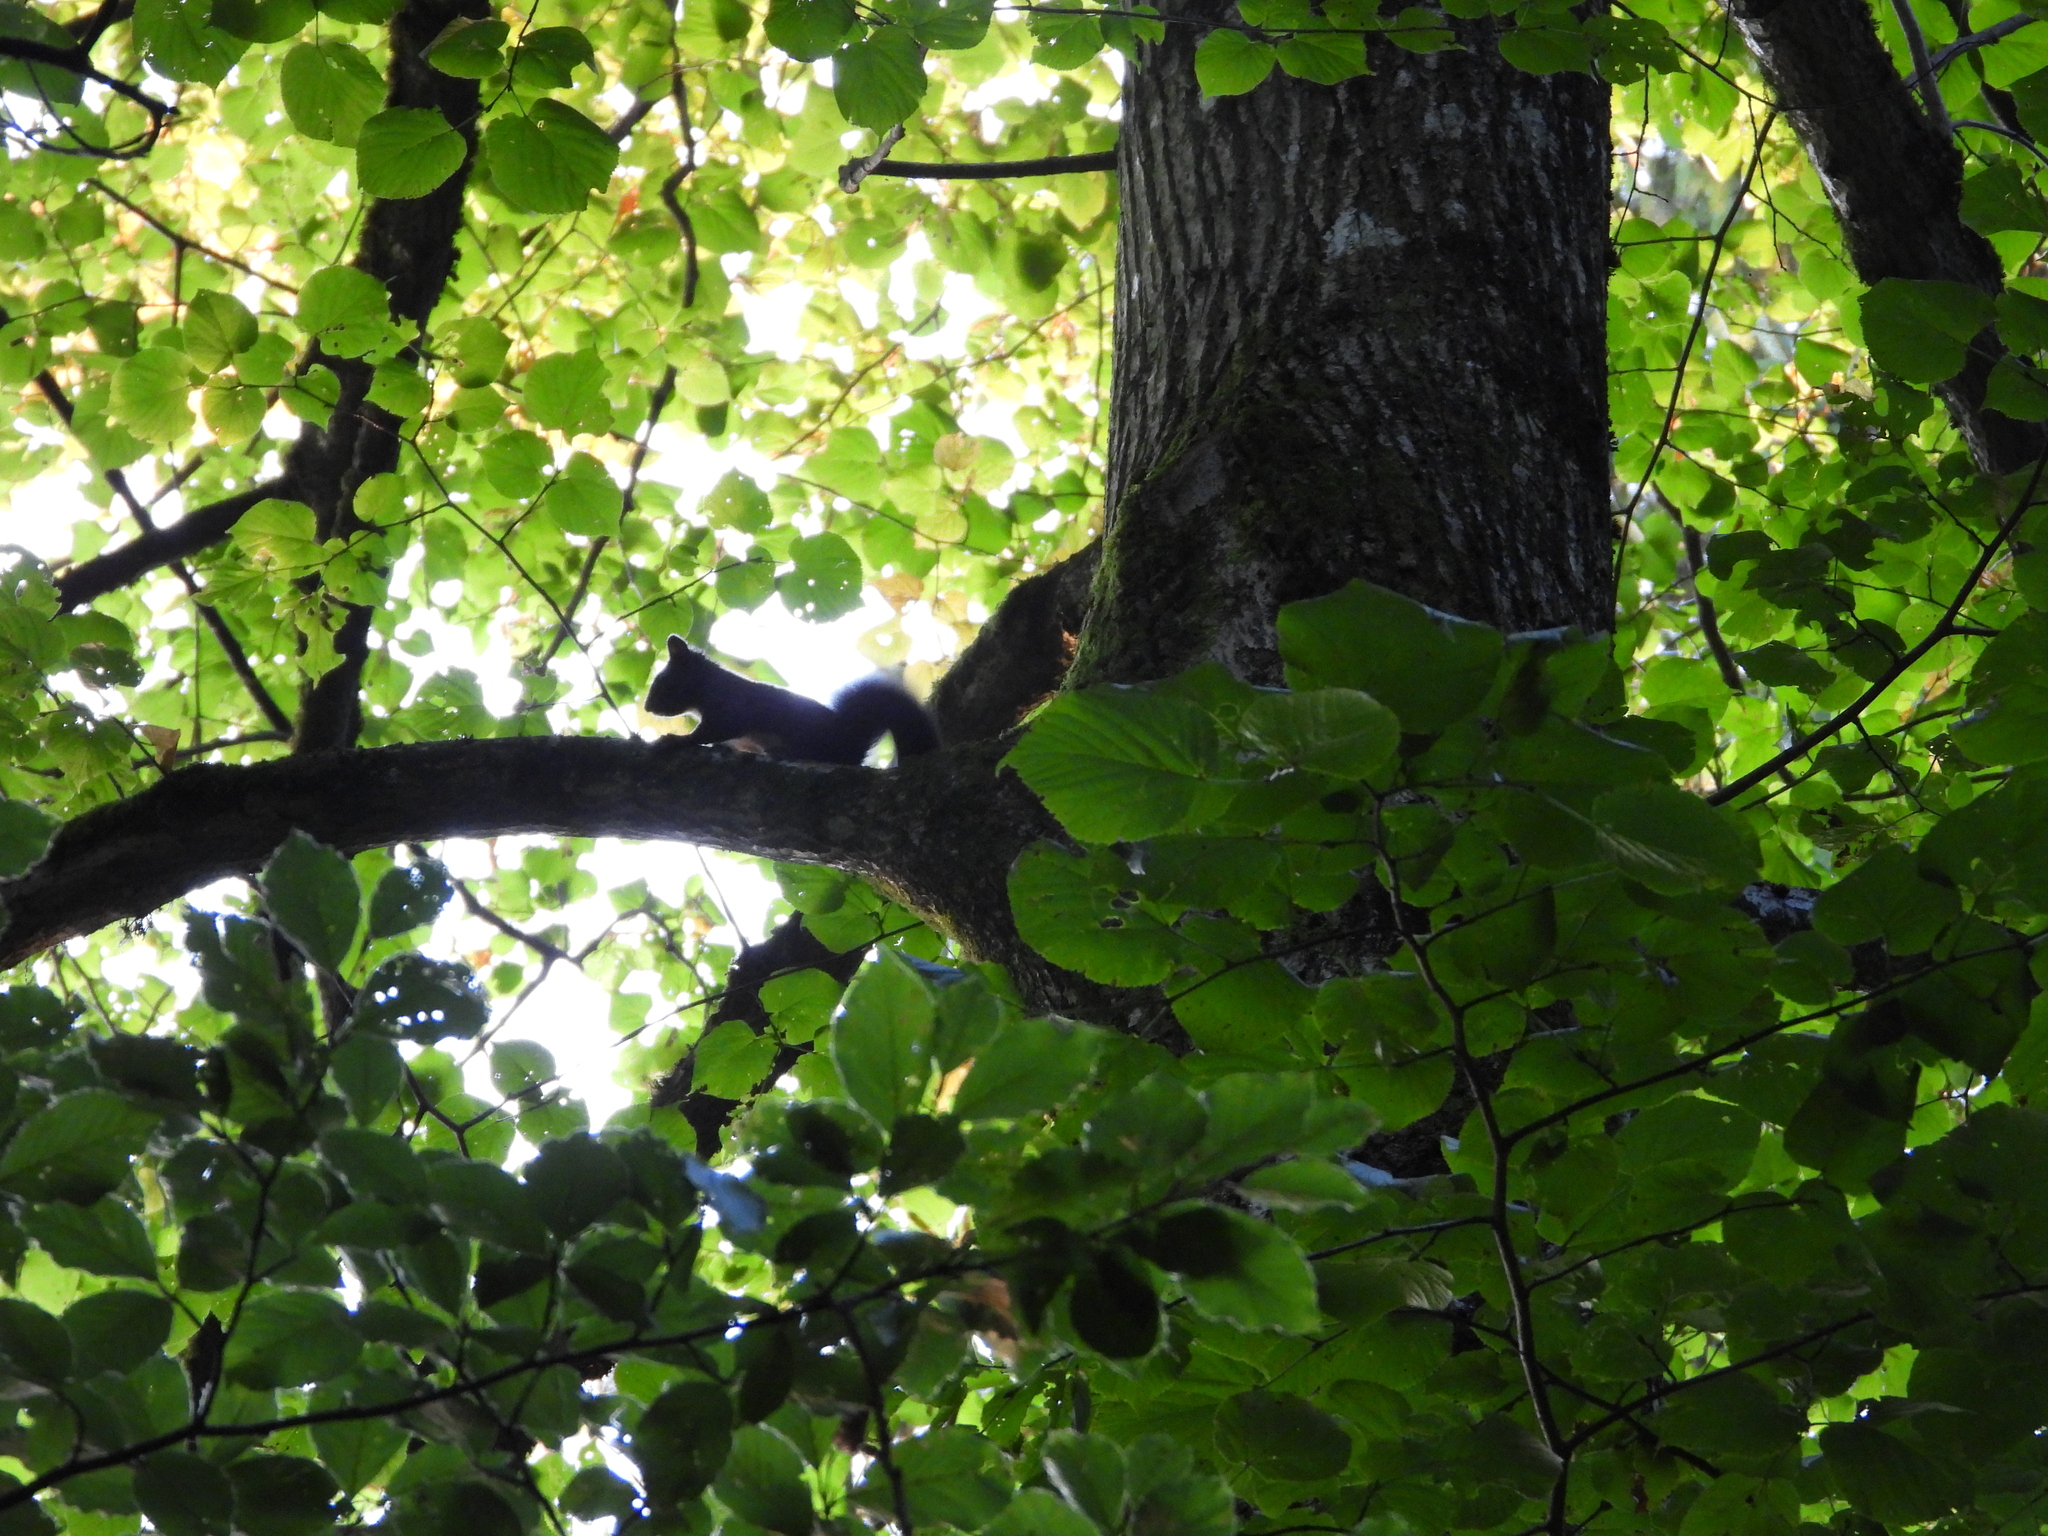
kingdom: Animalia
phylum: Chordata
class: Mammalia
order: Rodentia
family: Sciuridae
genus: Sciurus
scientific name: Sciurus vulgaris
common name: Eurasian red squirrel
